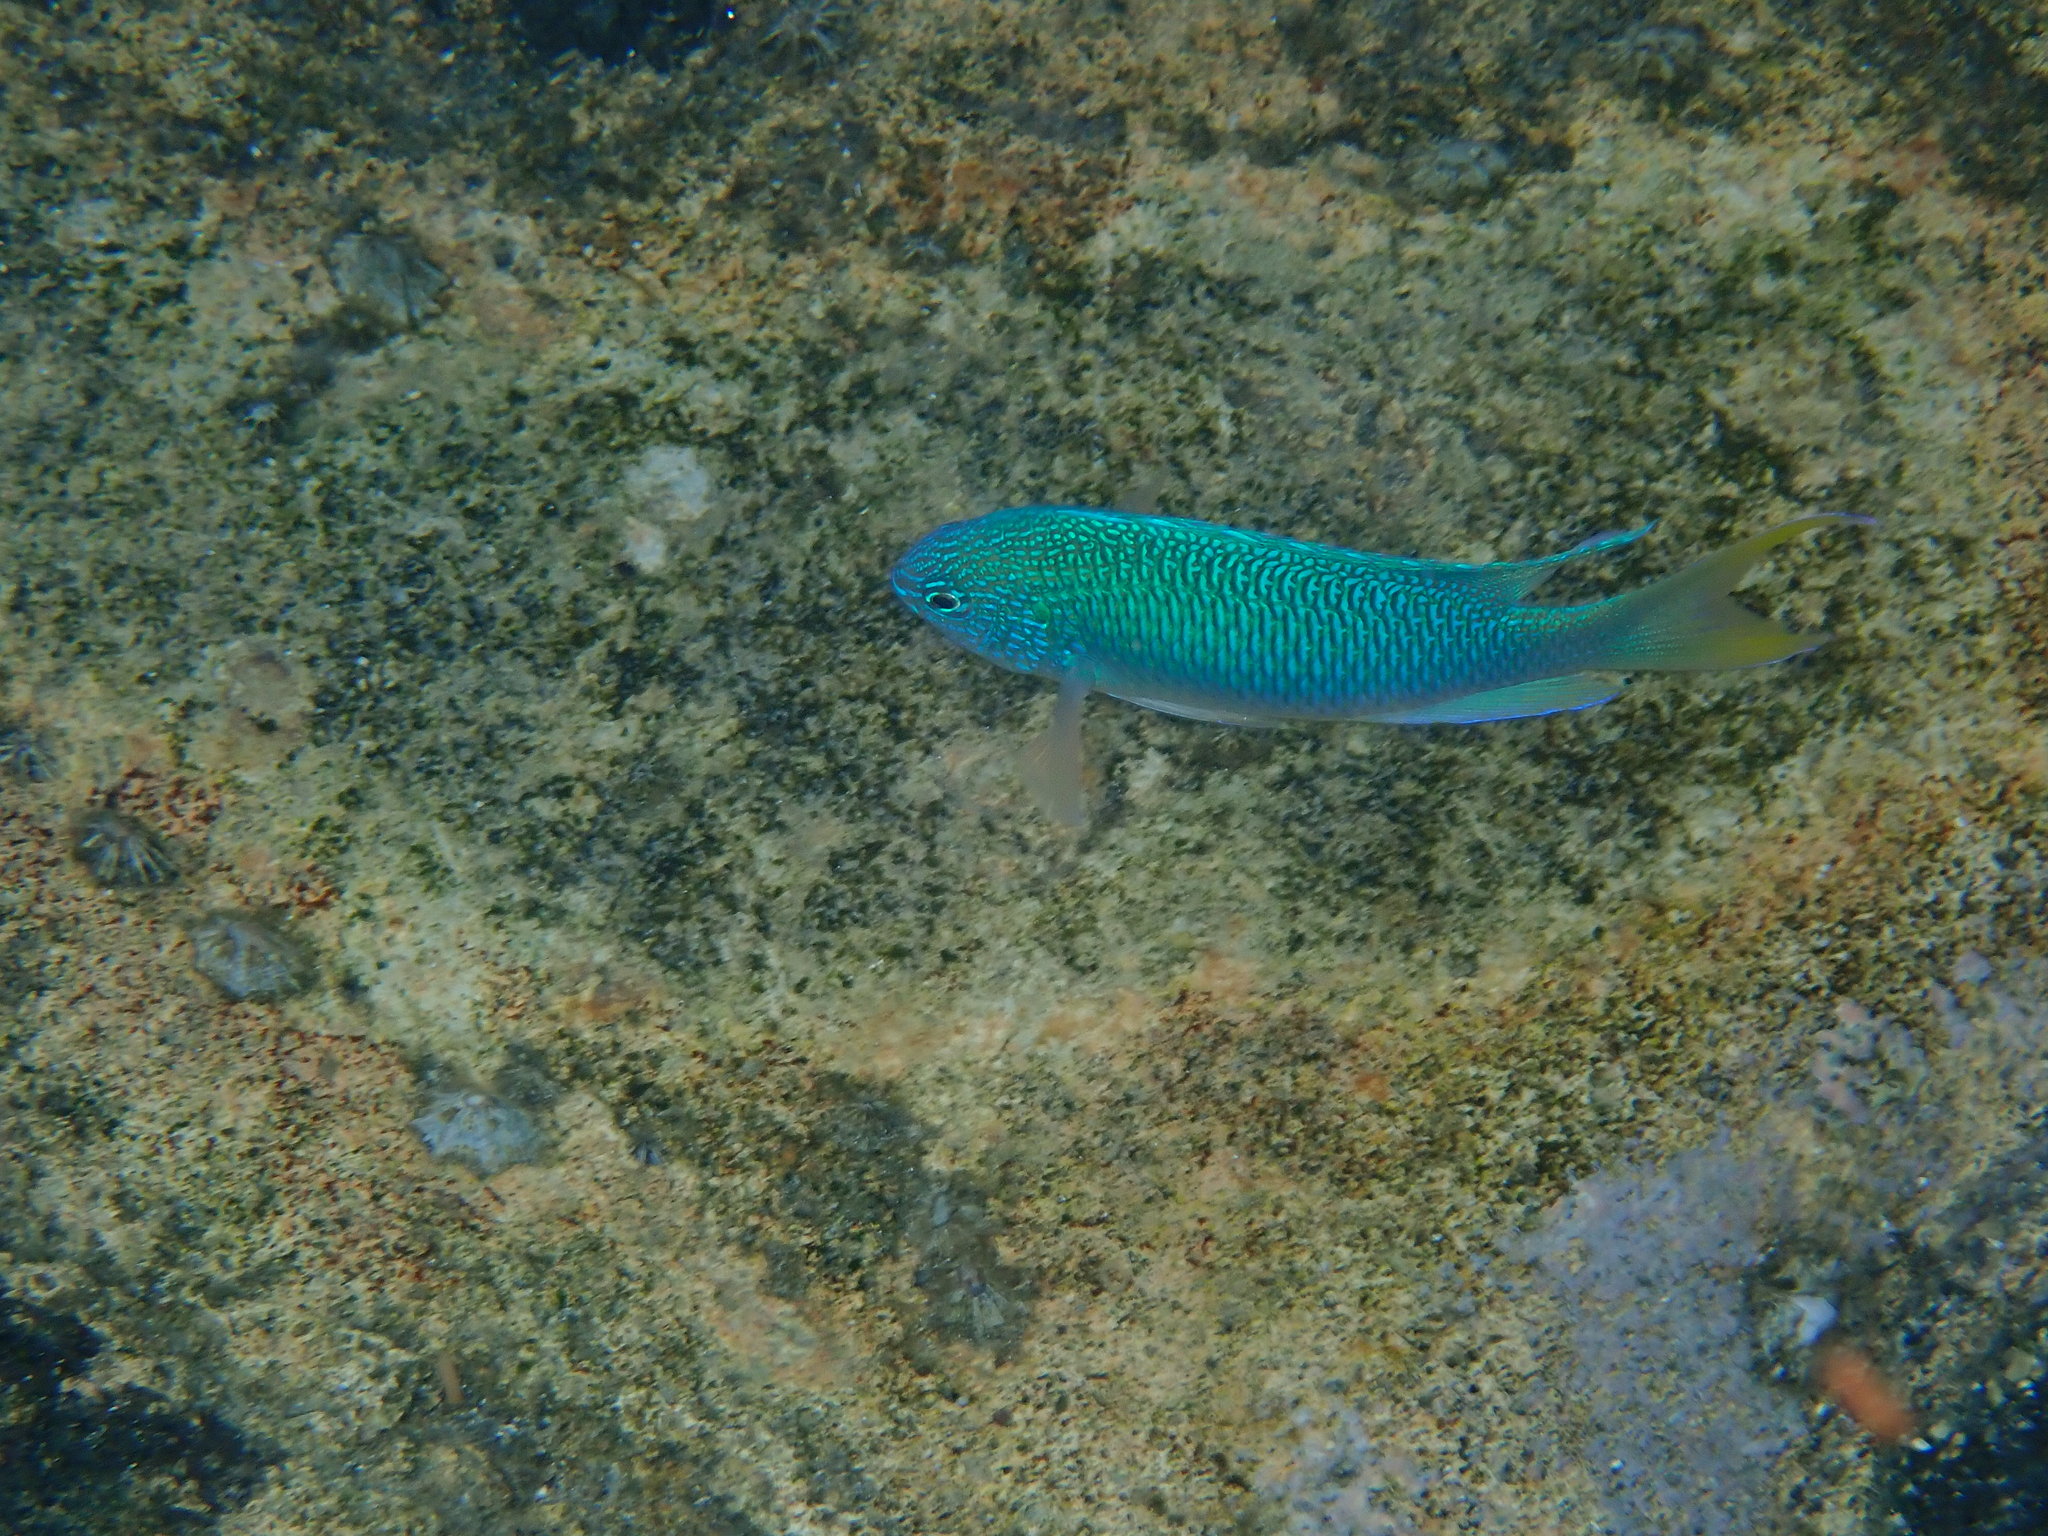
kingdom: Animalia
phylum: Chordata
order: Perciformes
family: Pomacentridae
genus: Pomacentrus
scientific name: Pomacentrus pavo
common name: Sapphire damsel
